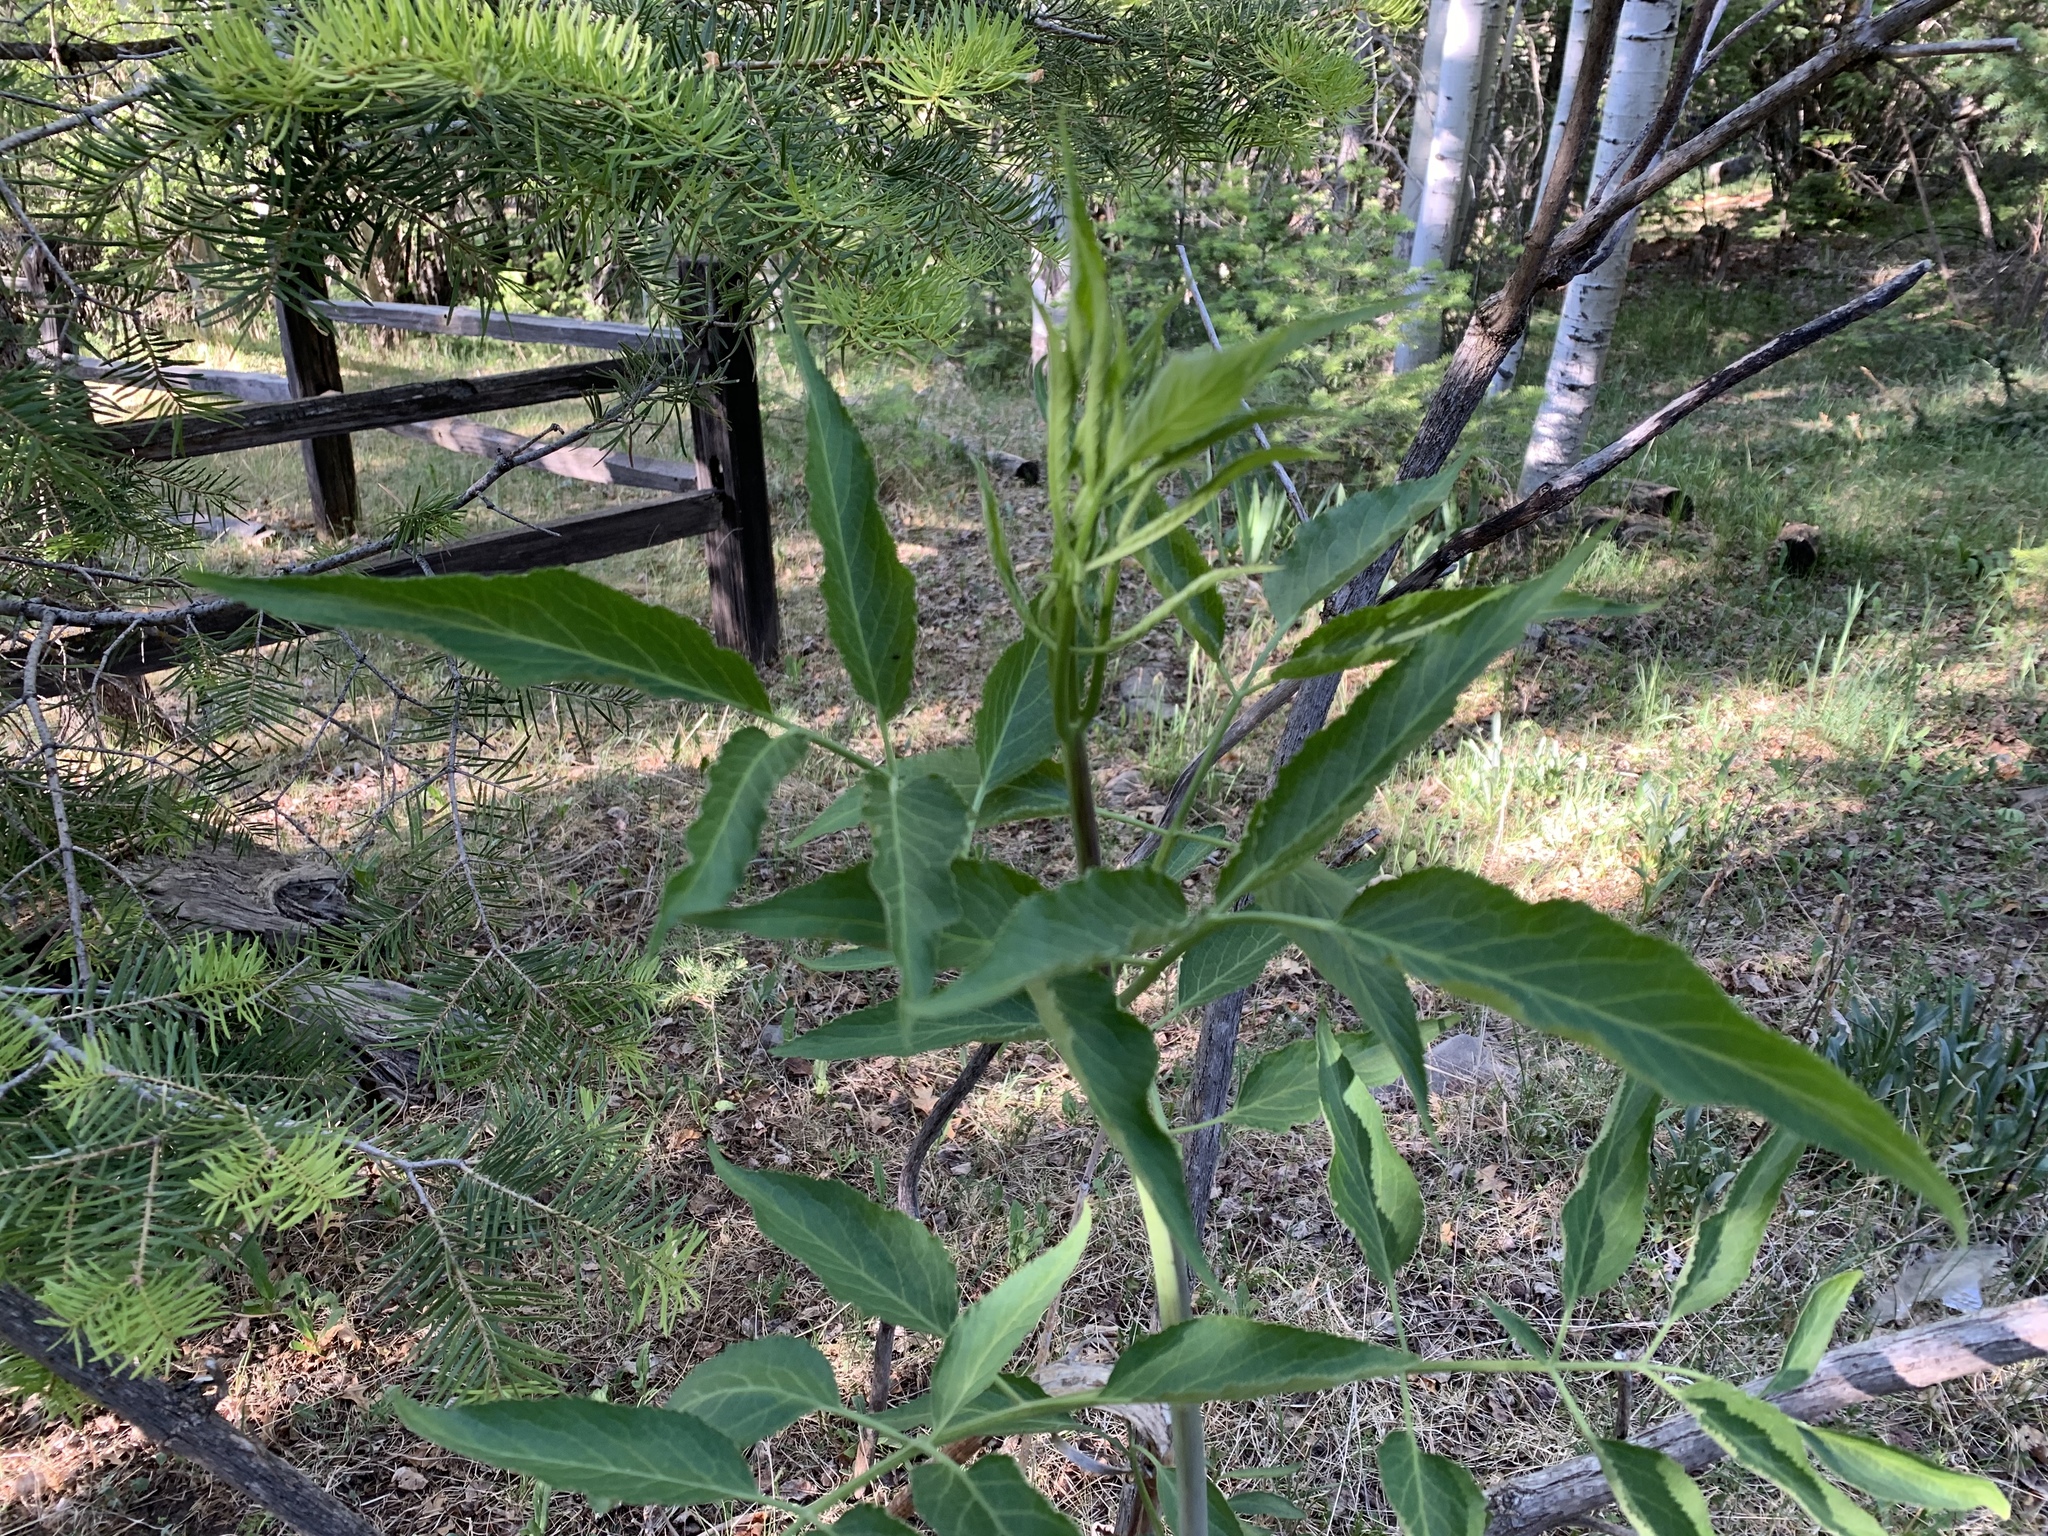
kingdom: Plantae
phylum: Tracheophyta
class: Magnoliopsida
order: Dipsacales
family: Viburnaceae
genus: Sambucus
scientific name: Sambucus cerulea
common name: Blue elder
